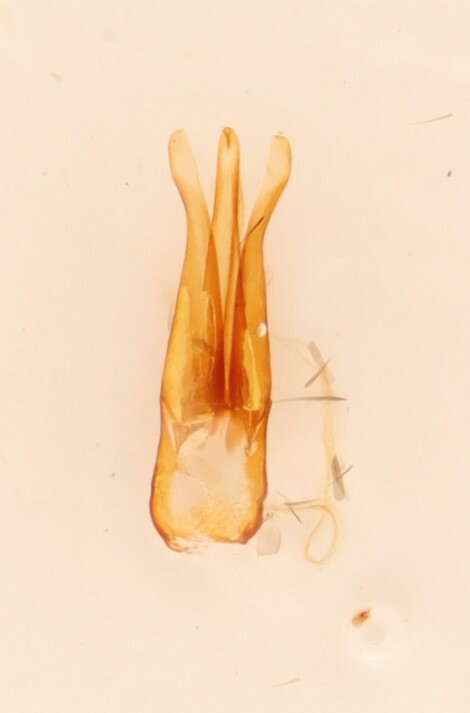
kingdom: Animalia
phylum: Arthropoda
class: Insecta
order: Coleoptera
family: Elateridae
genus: Athous
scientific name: Athous orvus
